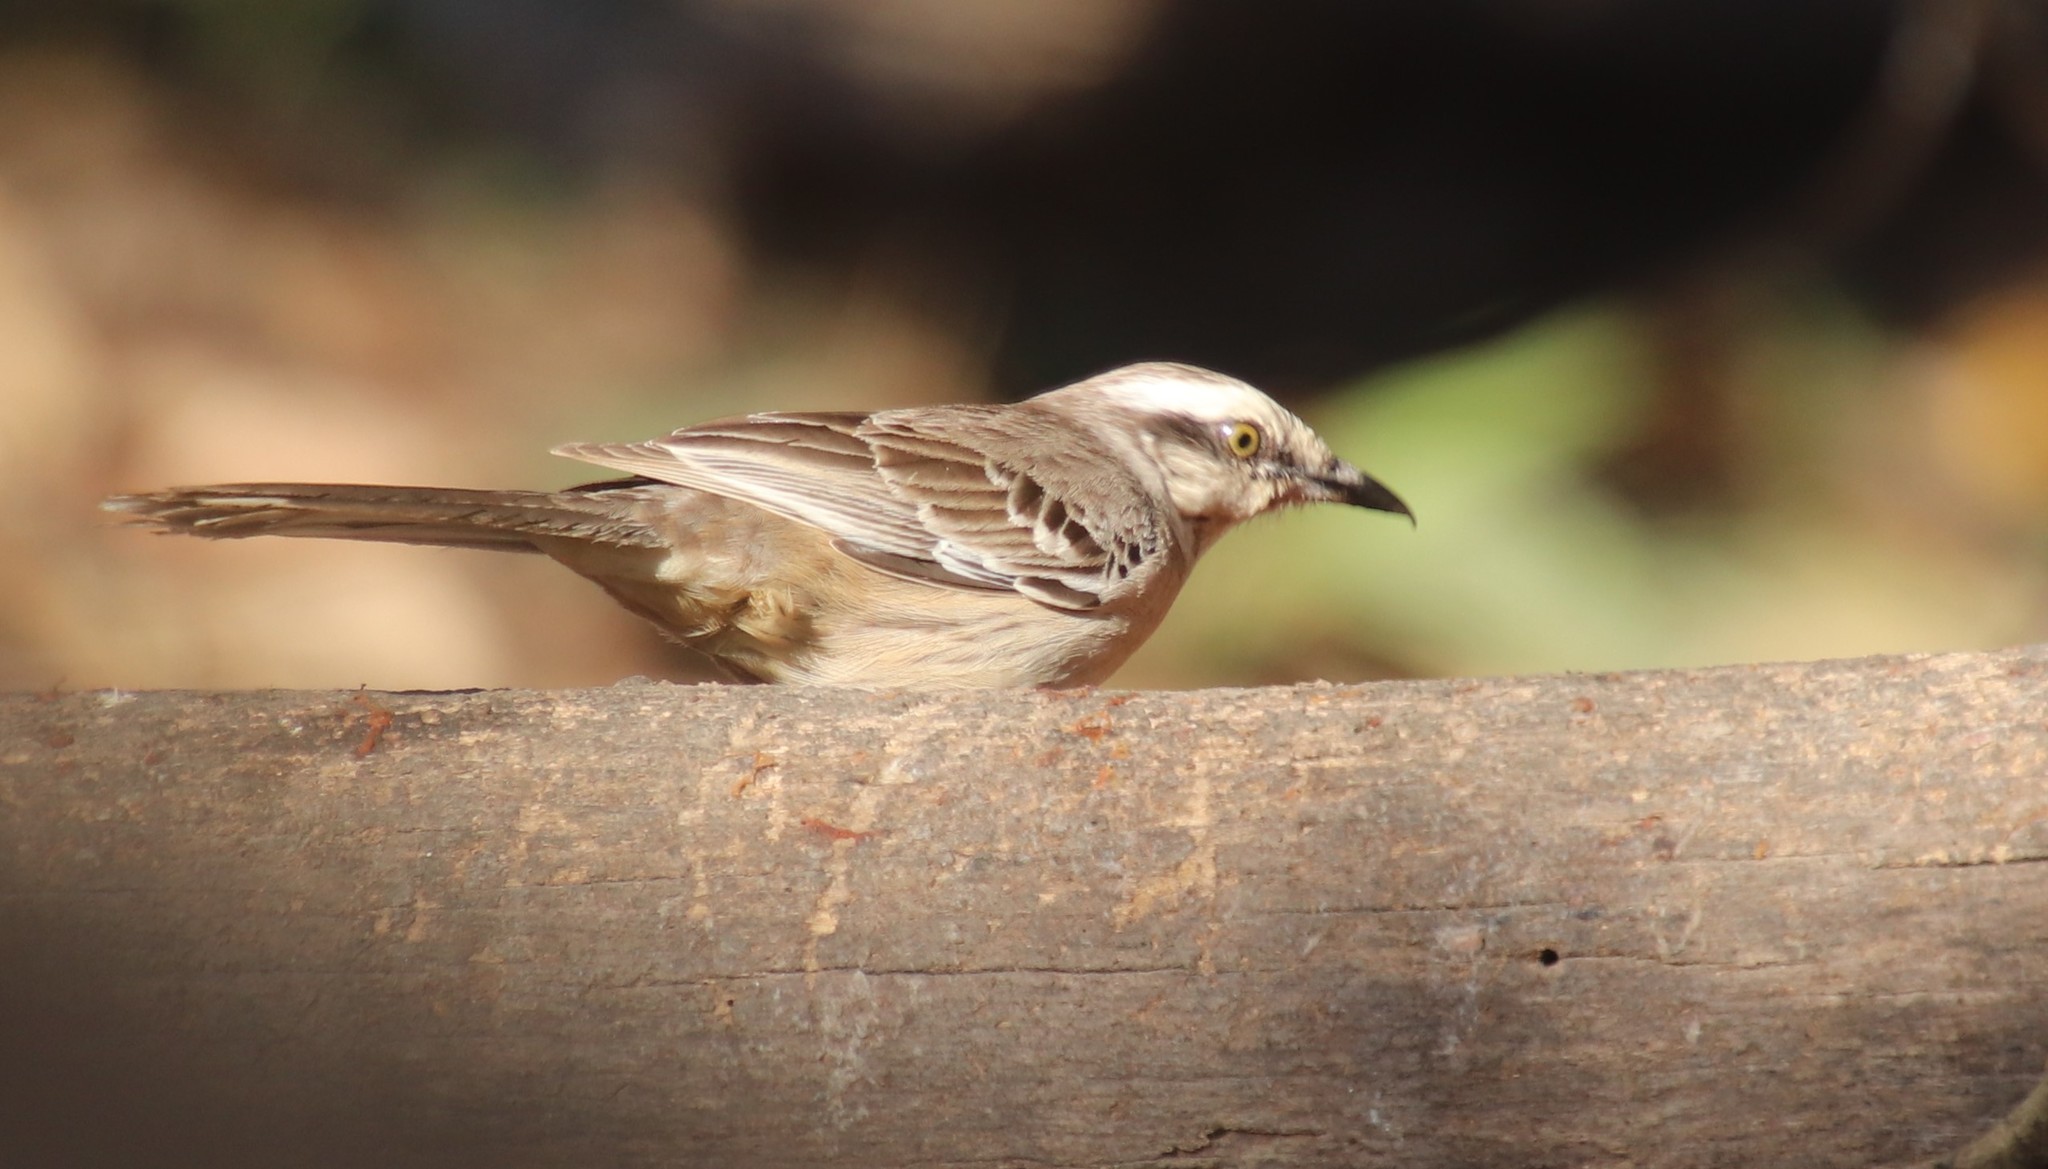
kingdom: Animalia
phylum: Chordata
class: Aves
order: Passeriformes
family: Mimidae
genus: Mimus
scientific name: Mimus saturninus
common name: Chalk-browed mockingbird
